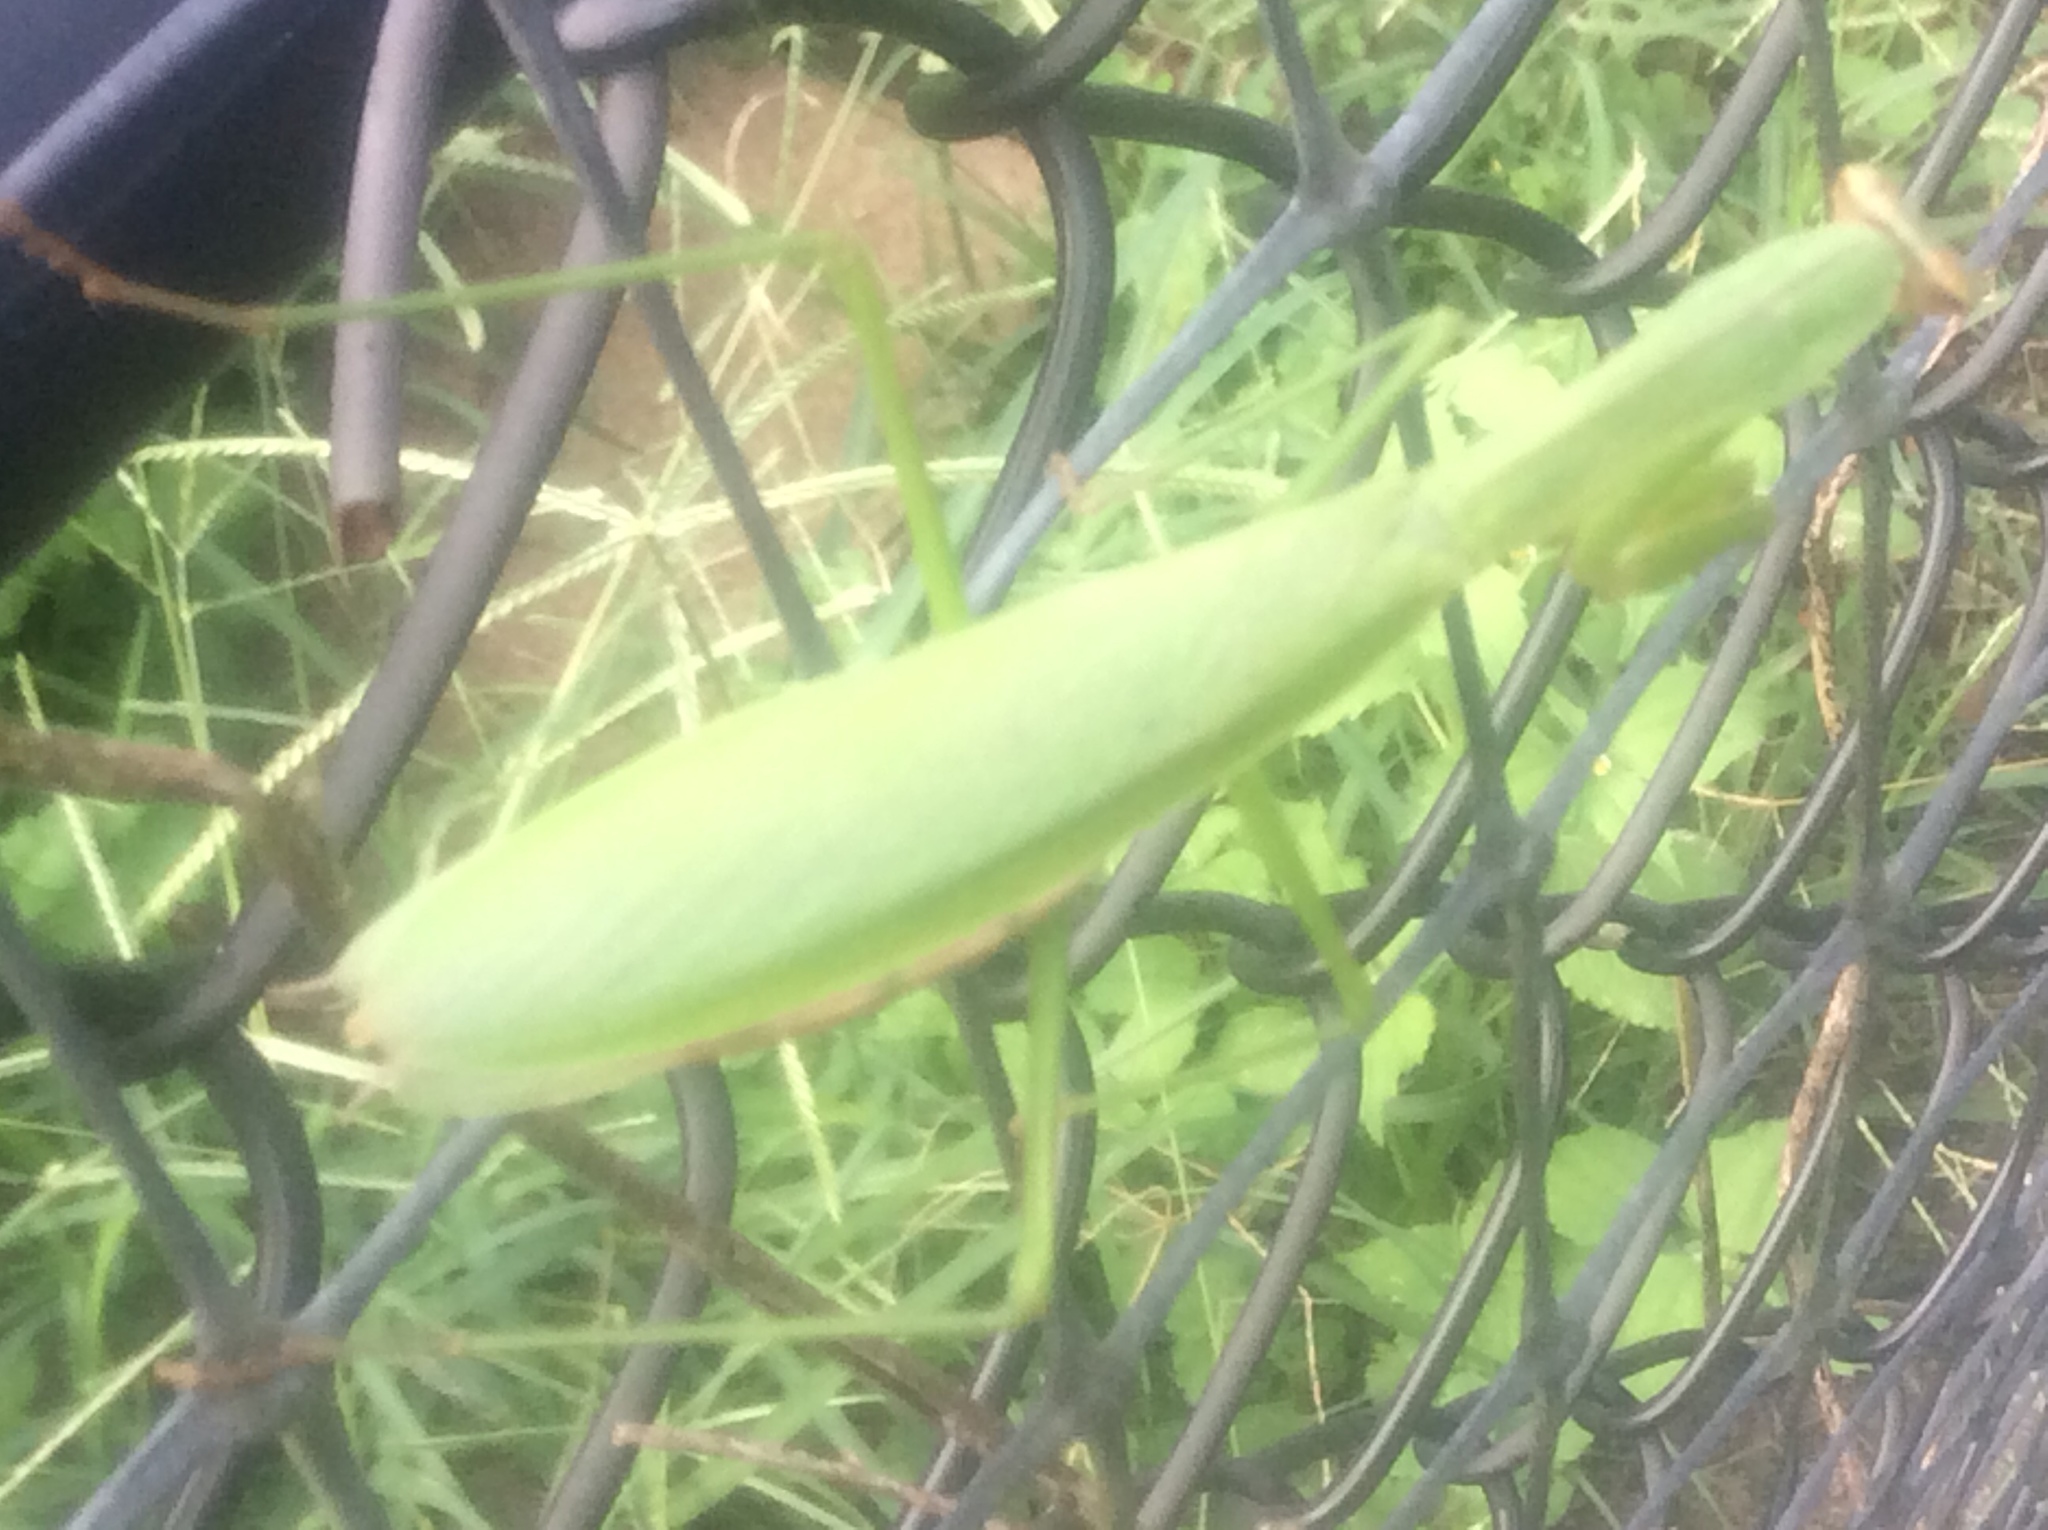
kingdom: Animalia
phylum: Arthropoda
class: Insecta
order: Mantodea
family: Mantidae
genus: Tenodera
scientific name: Tenodera sinensis
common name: Chinese mantis
